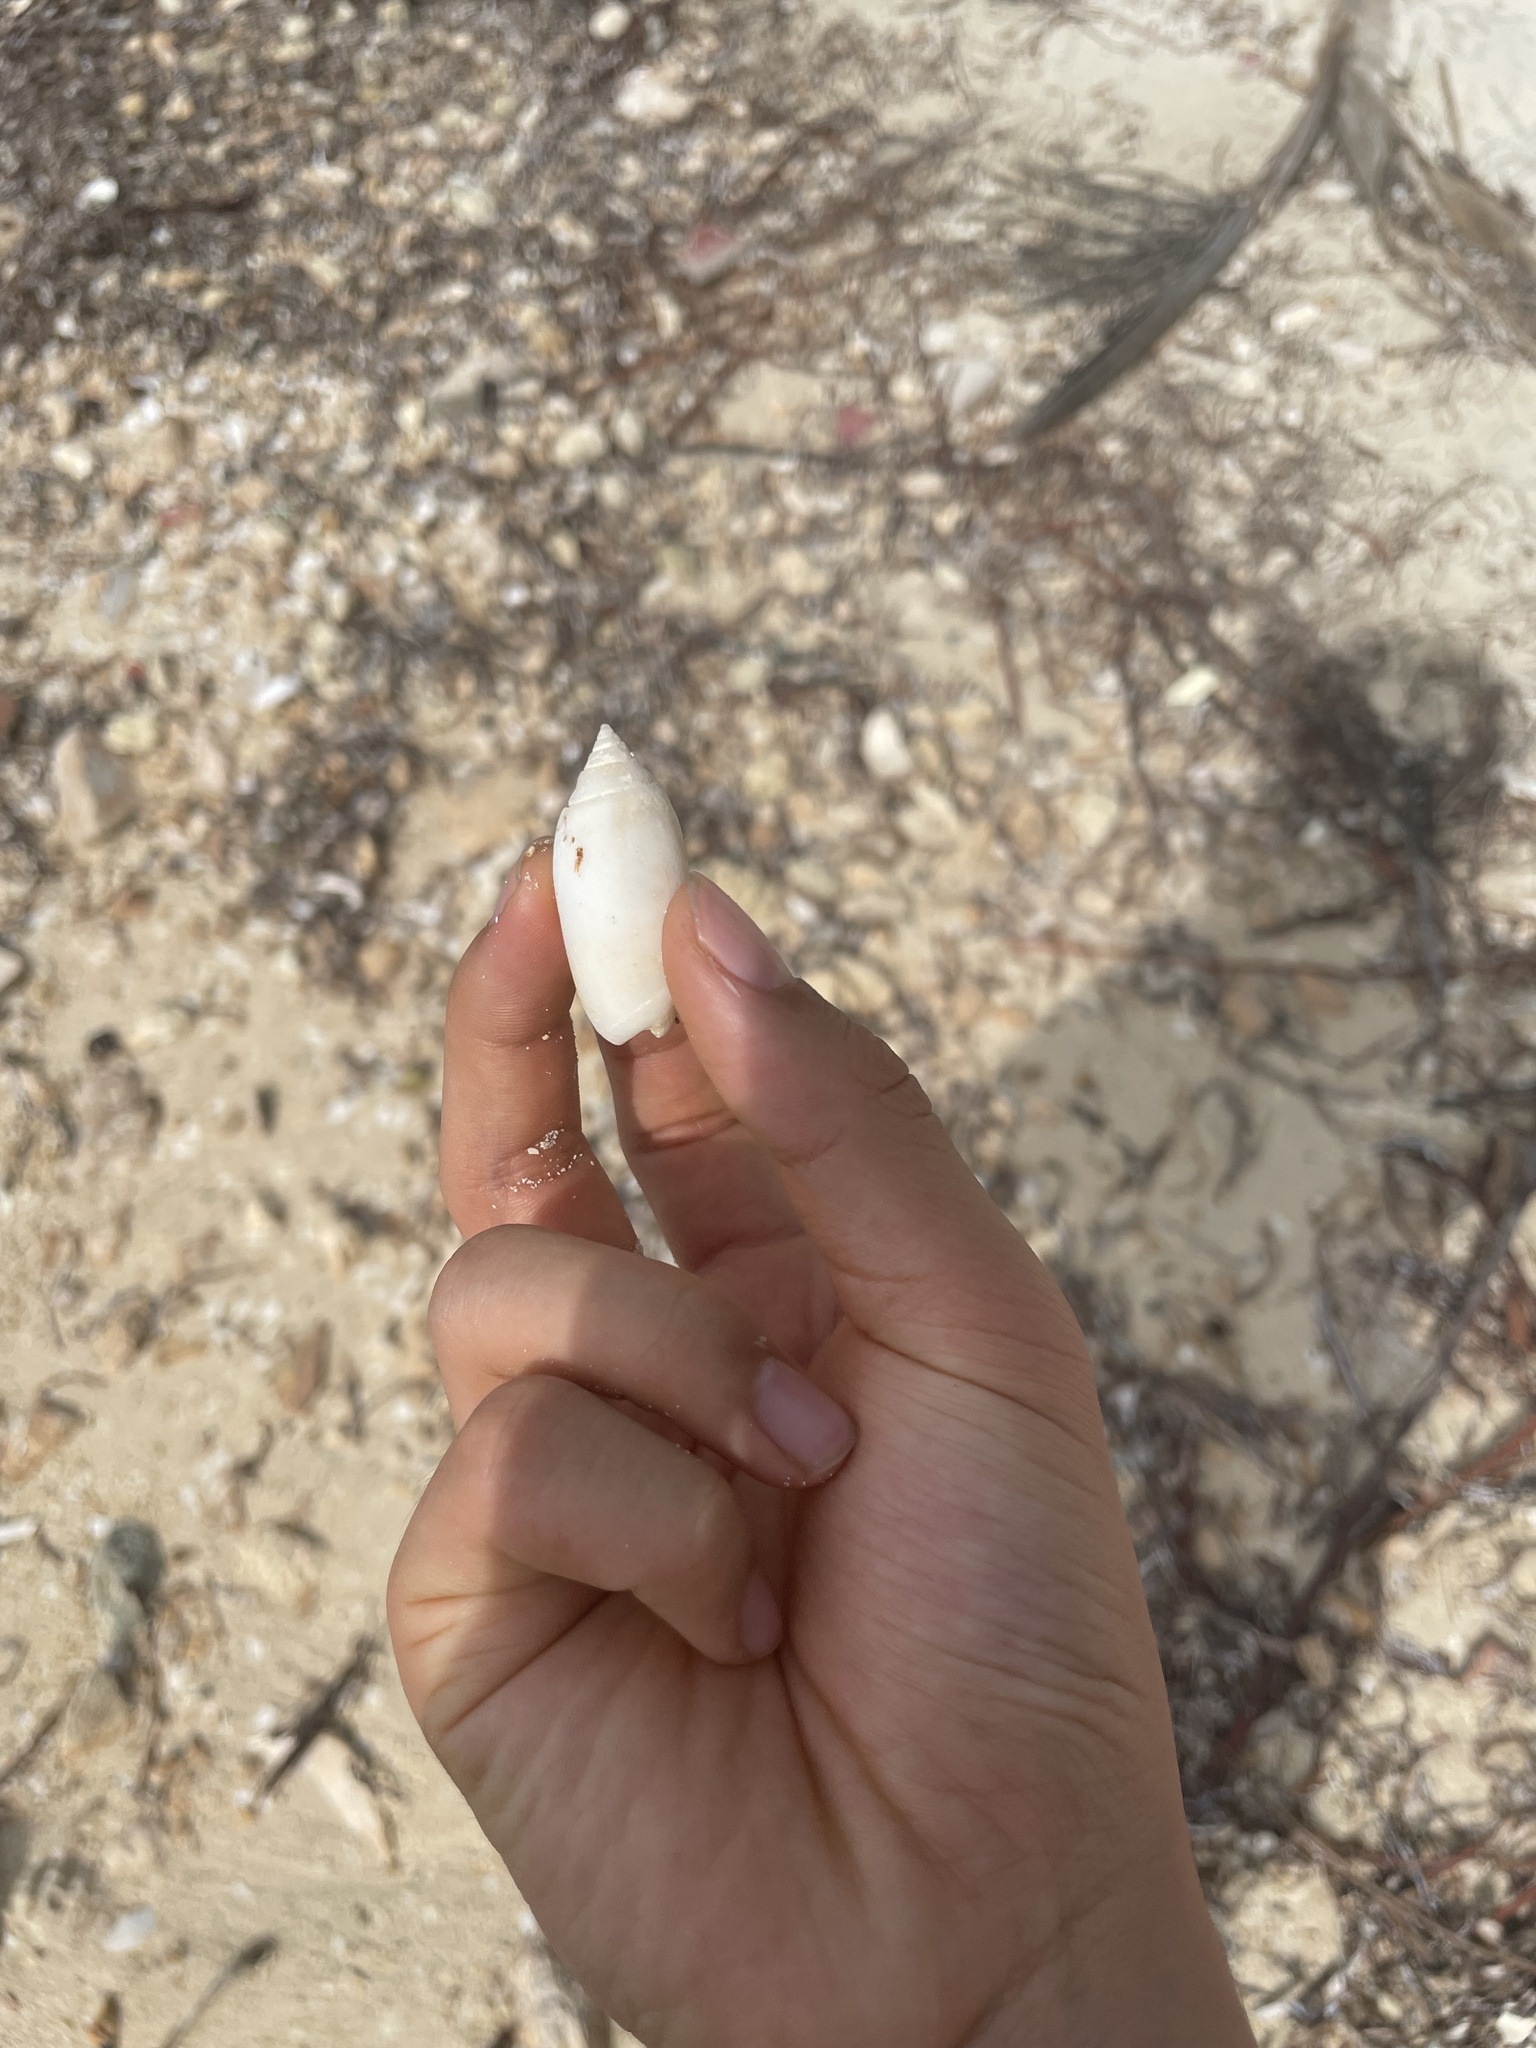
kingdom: Animalia
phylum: Mollusca
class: Gastropoda
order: Neogastropoda
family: Olividae
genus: Oliva
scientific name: Oliva reticularis
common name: Netted olive
